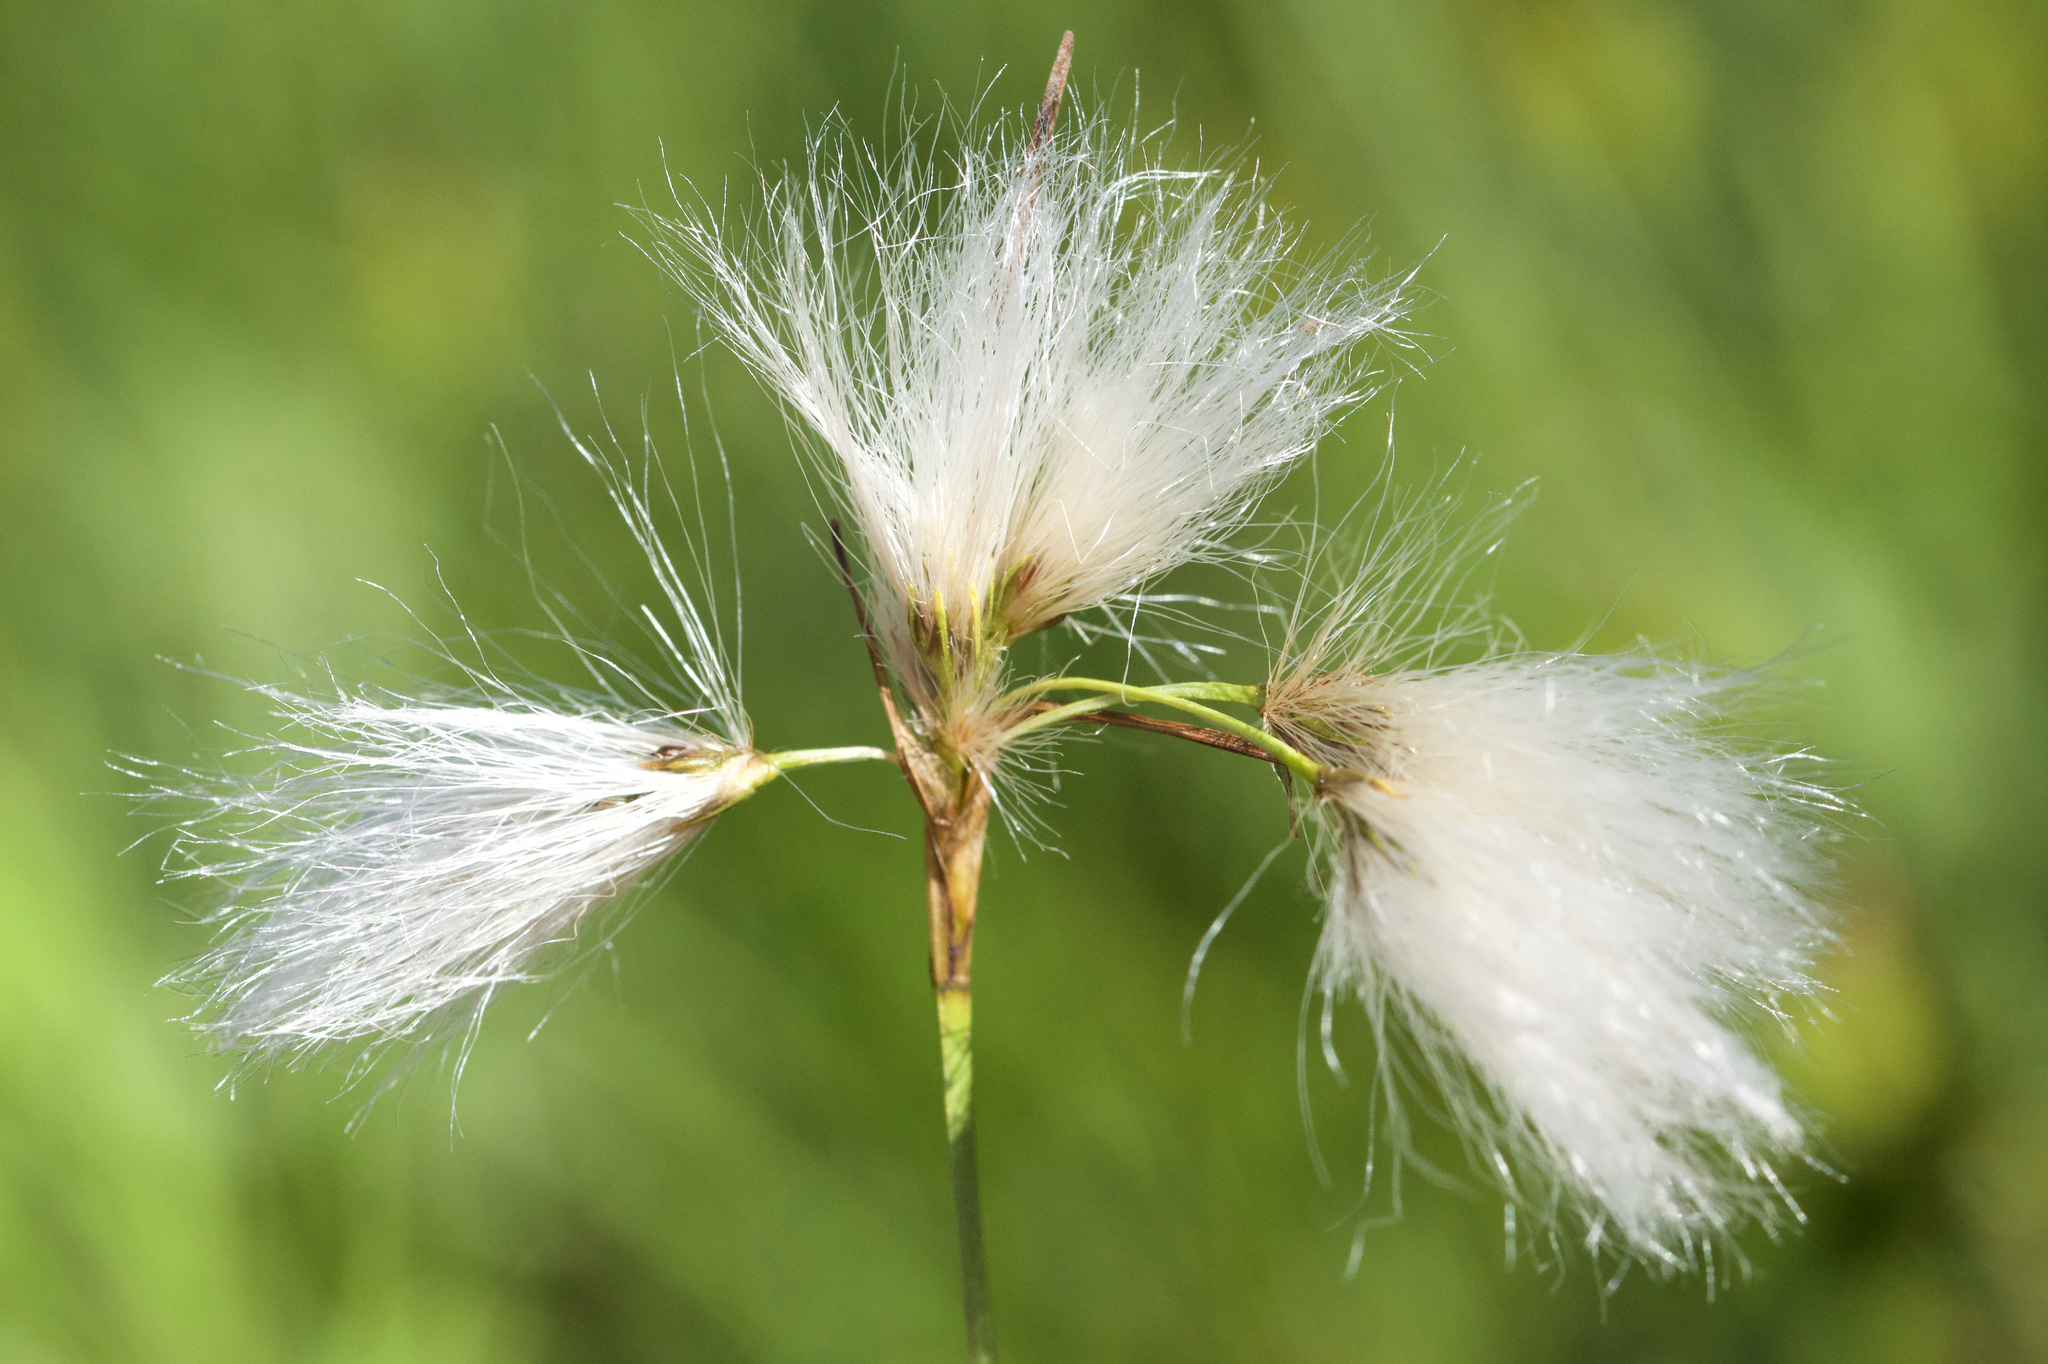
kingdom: Plantae
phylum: Tracheophyta
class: Liliopsida
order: Poales
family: Cyperaceae
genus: Eriophorum
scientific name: Eriophorum viridicarinatum
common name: Green-keeled cottongrass
